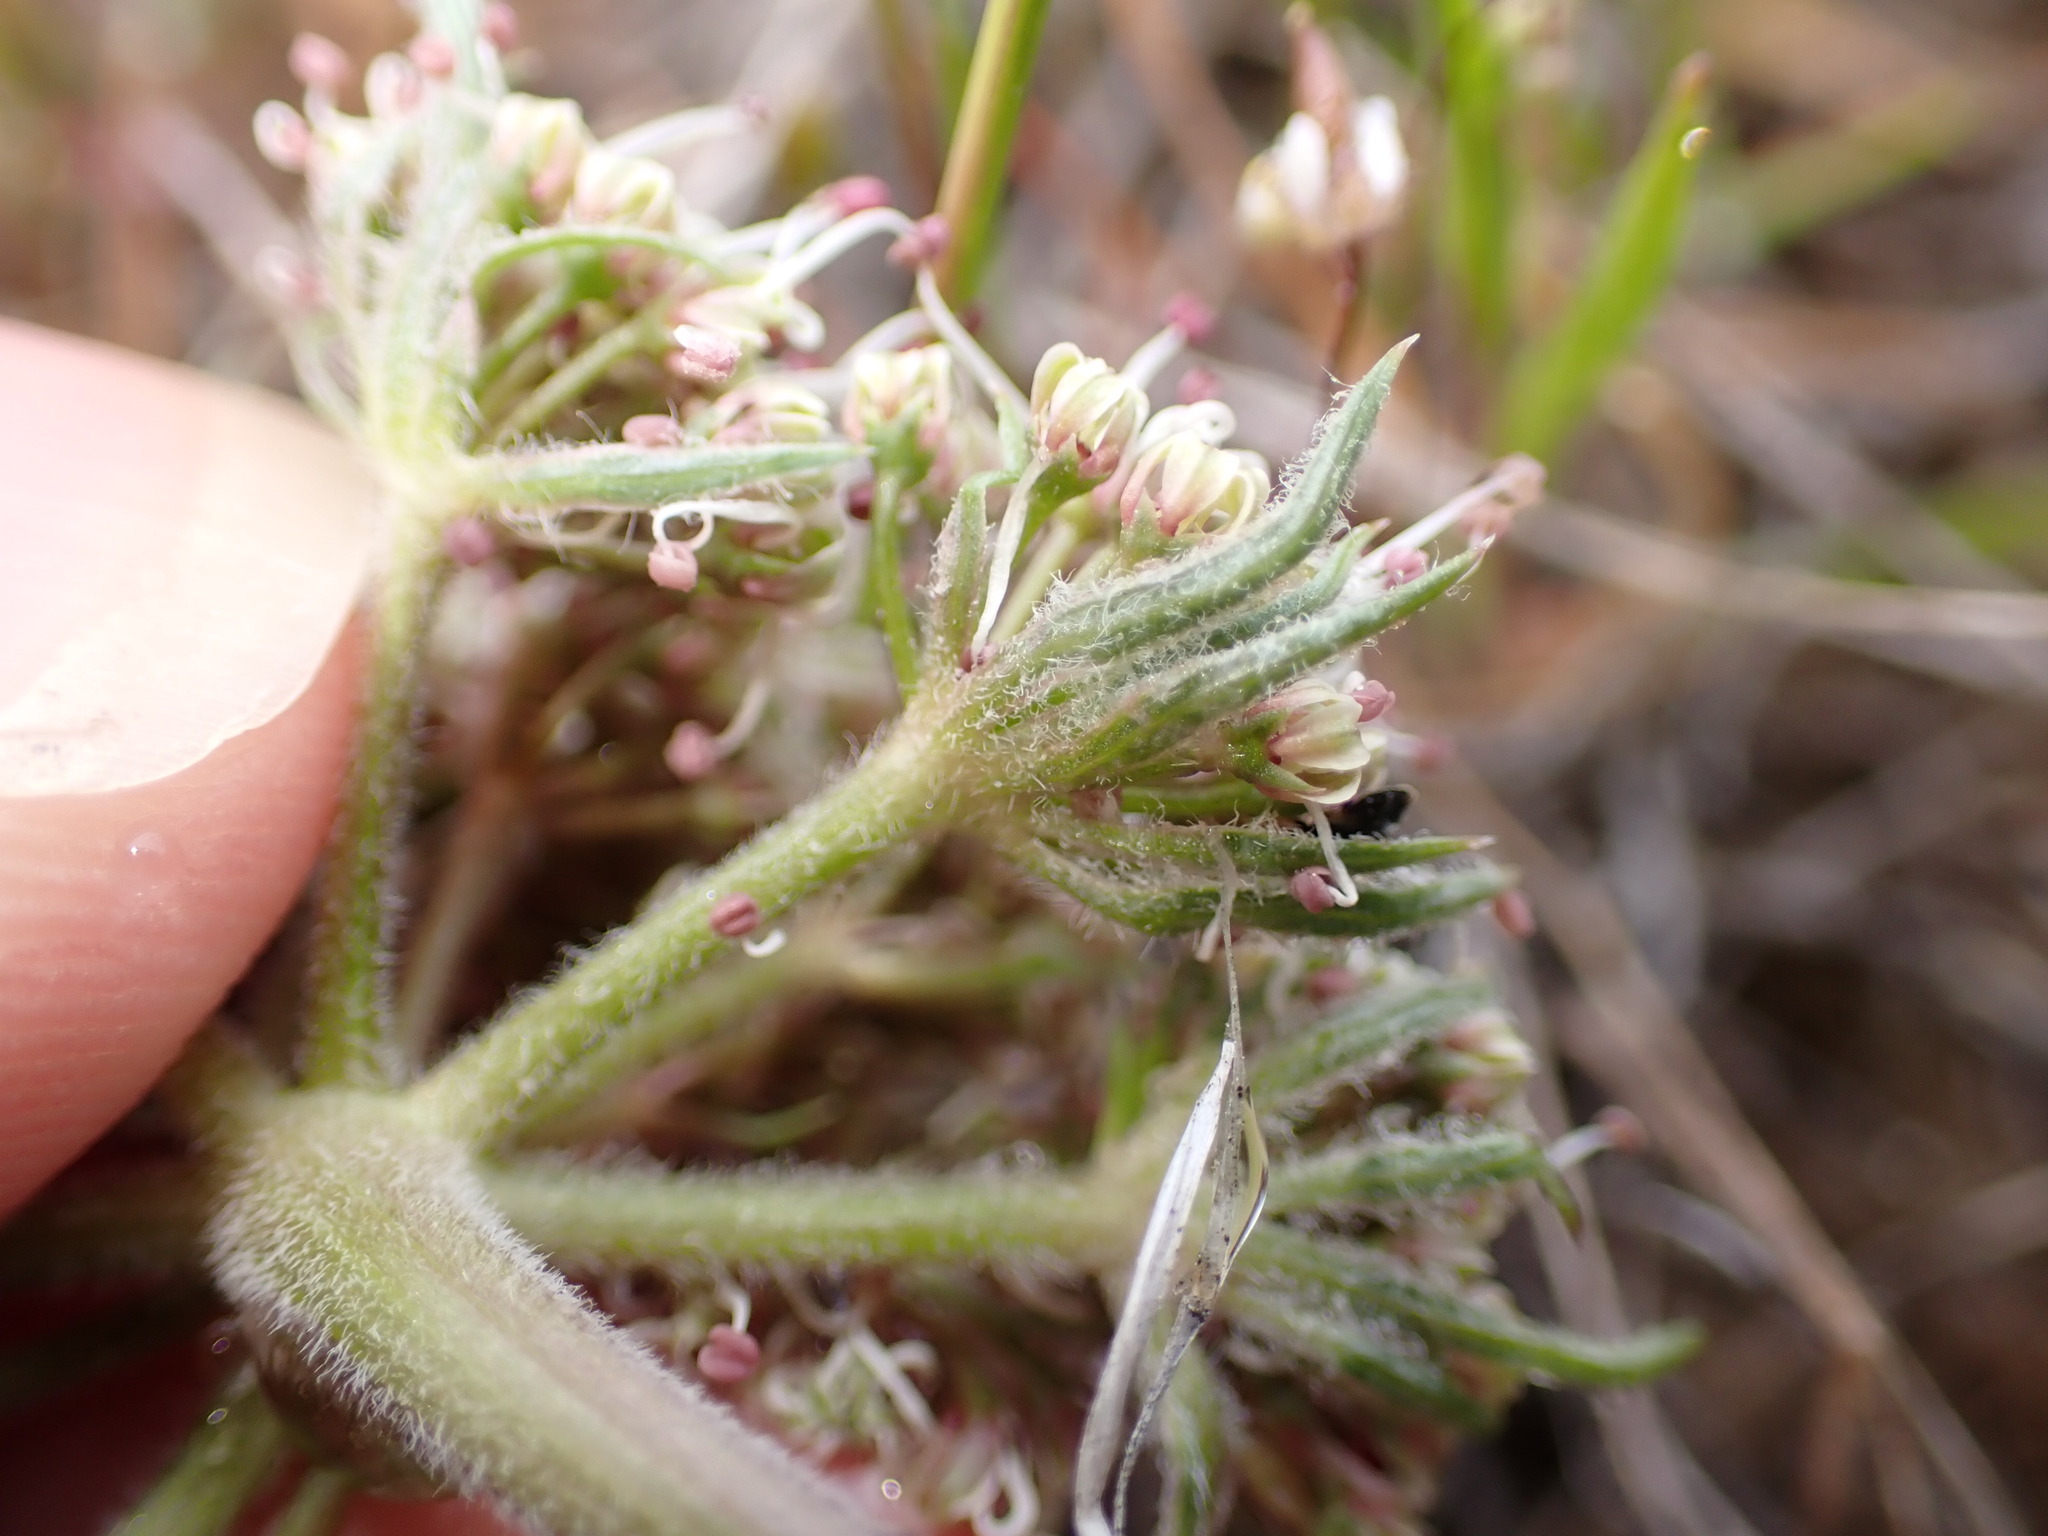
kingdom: Plantae
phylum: Tracheophyta
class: Magnoliopsida
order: Apiales
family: Apiaceae
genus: Lomatium
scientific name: Lomatium macrocarpum
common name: Big-seed biscuitroot
